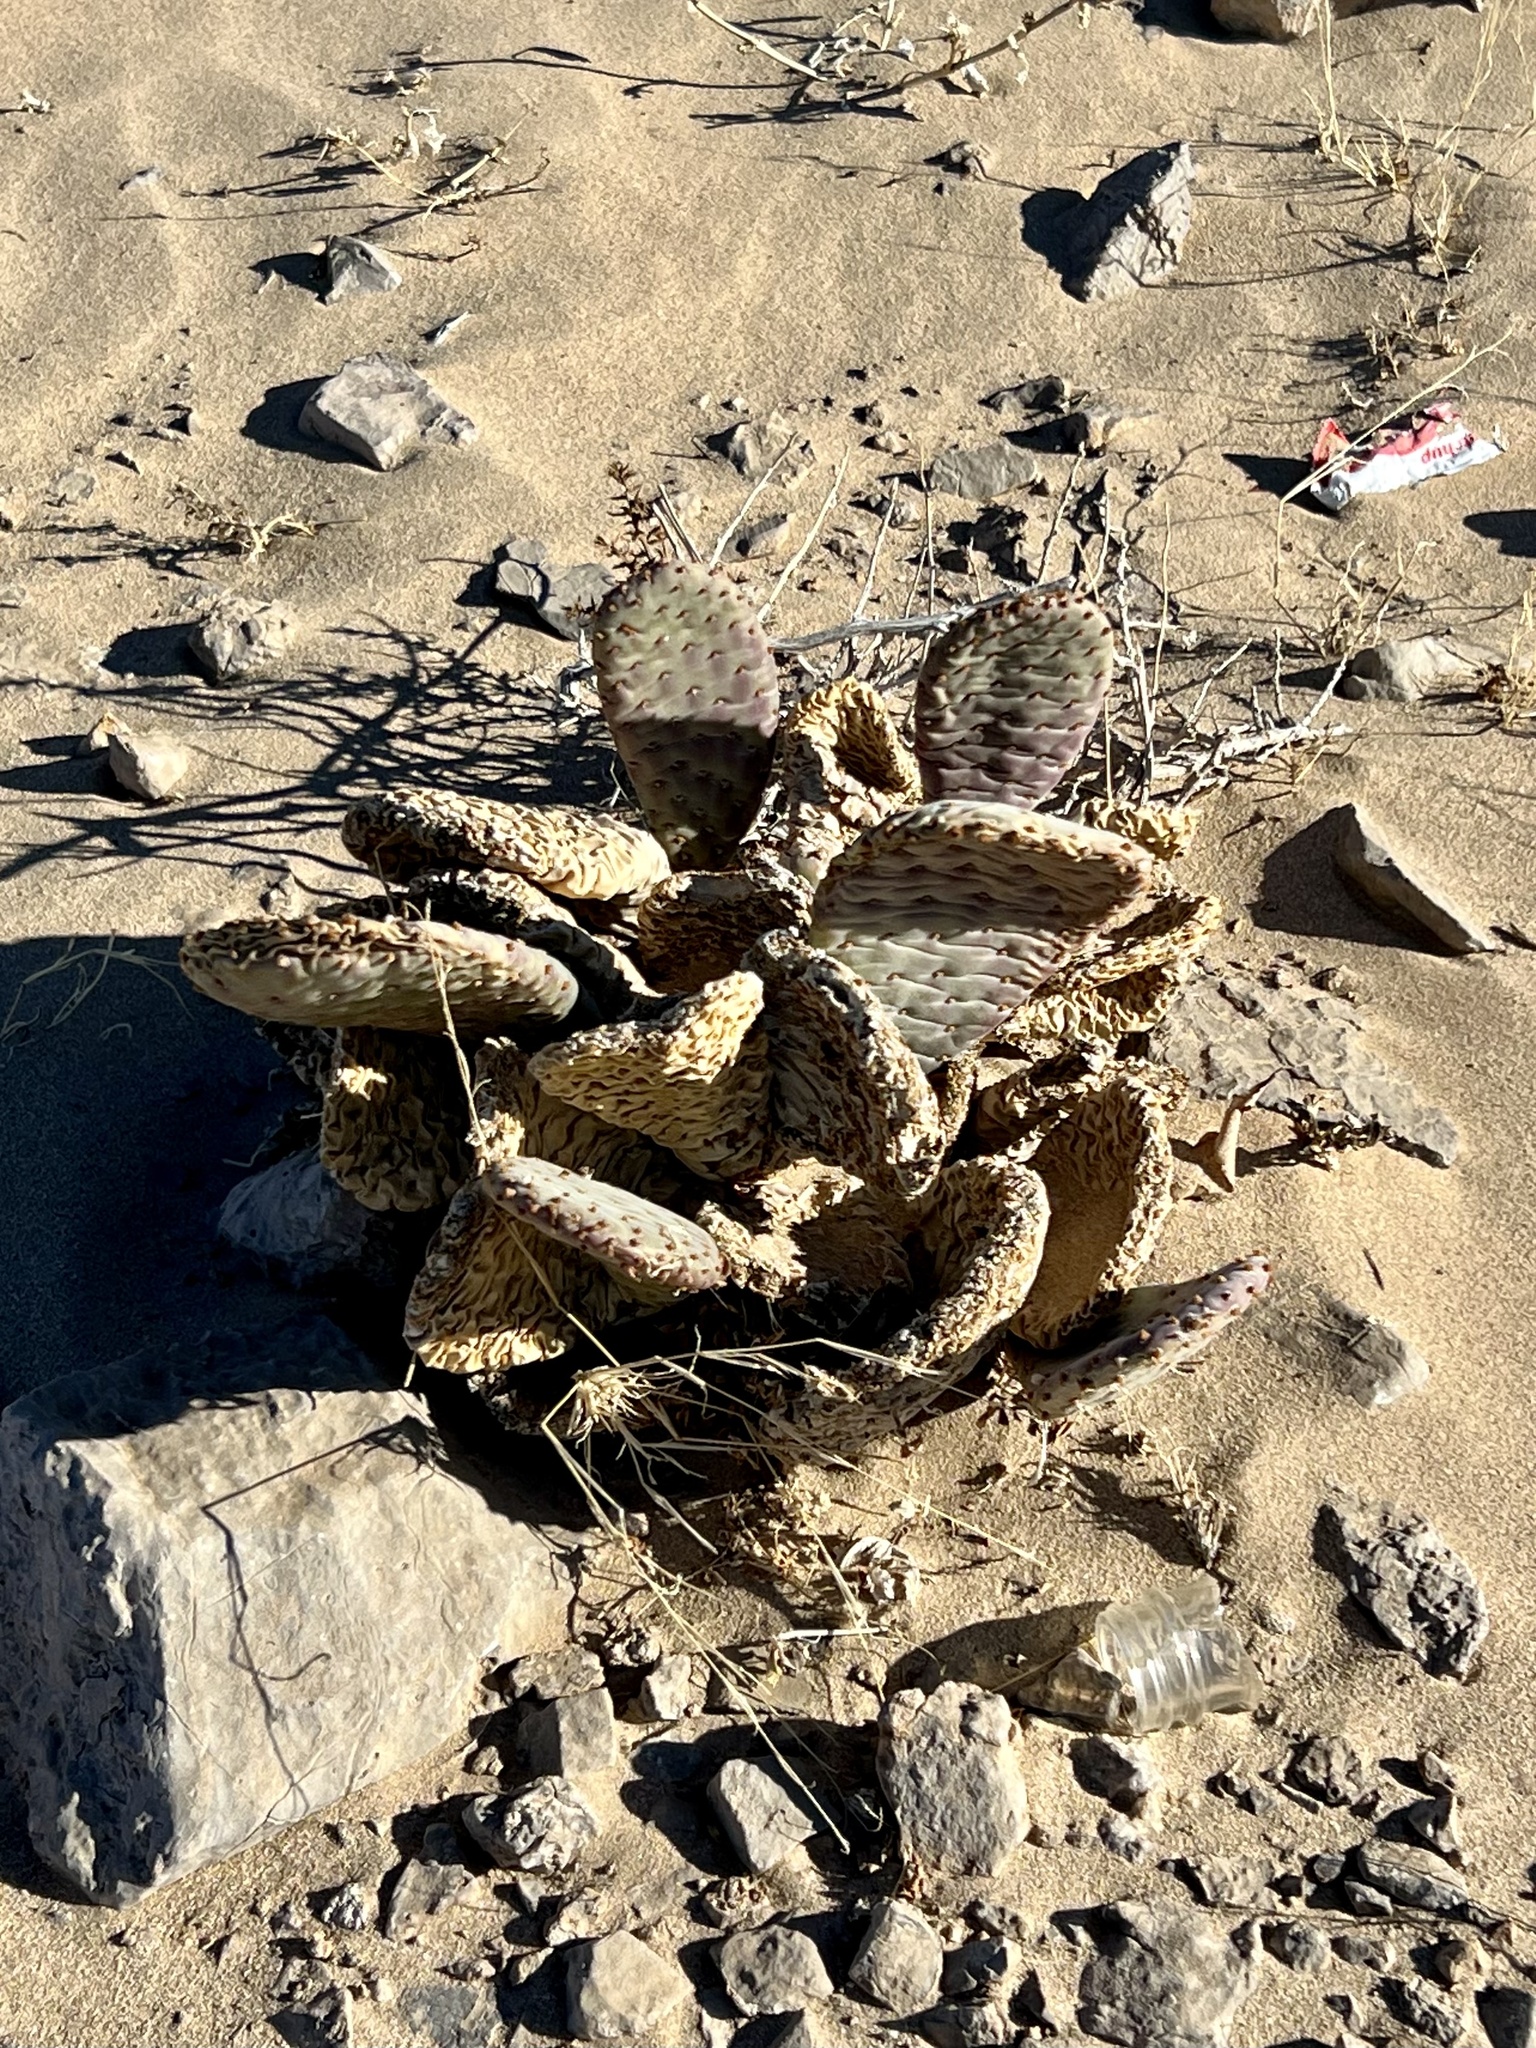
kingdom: Plantae
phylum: Tracheophyta
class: Magnoliopsida
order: Caryophyllales
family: Cactaceae
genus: Opuntia
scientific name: Opuntia basilaris
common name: Beavertail prickly-pear
